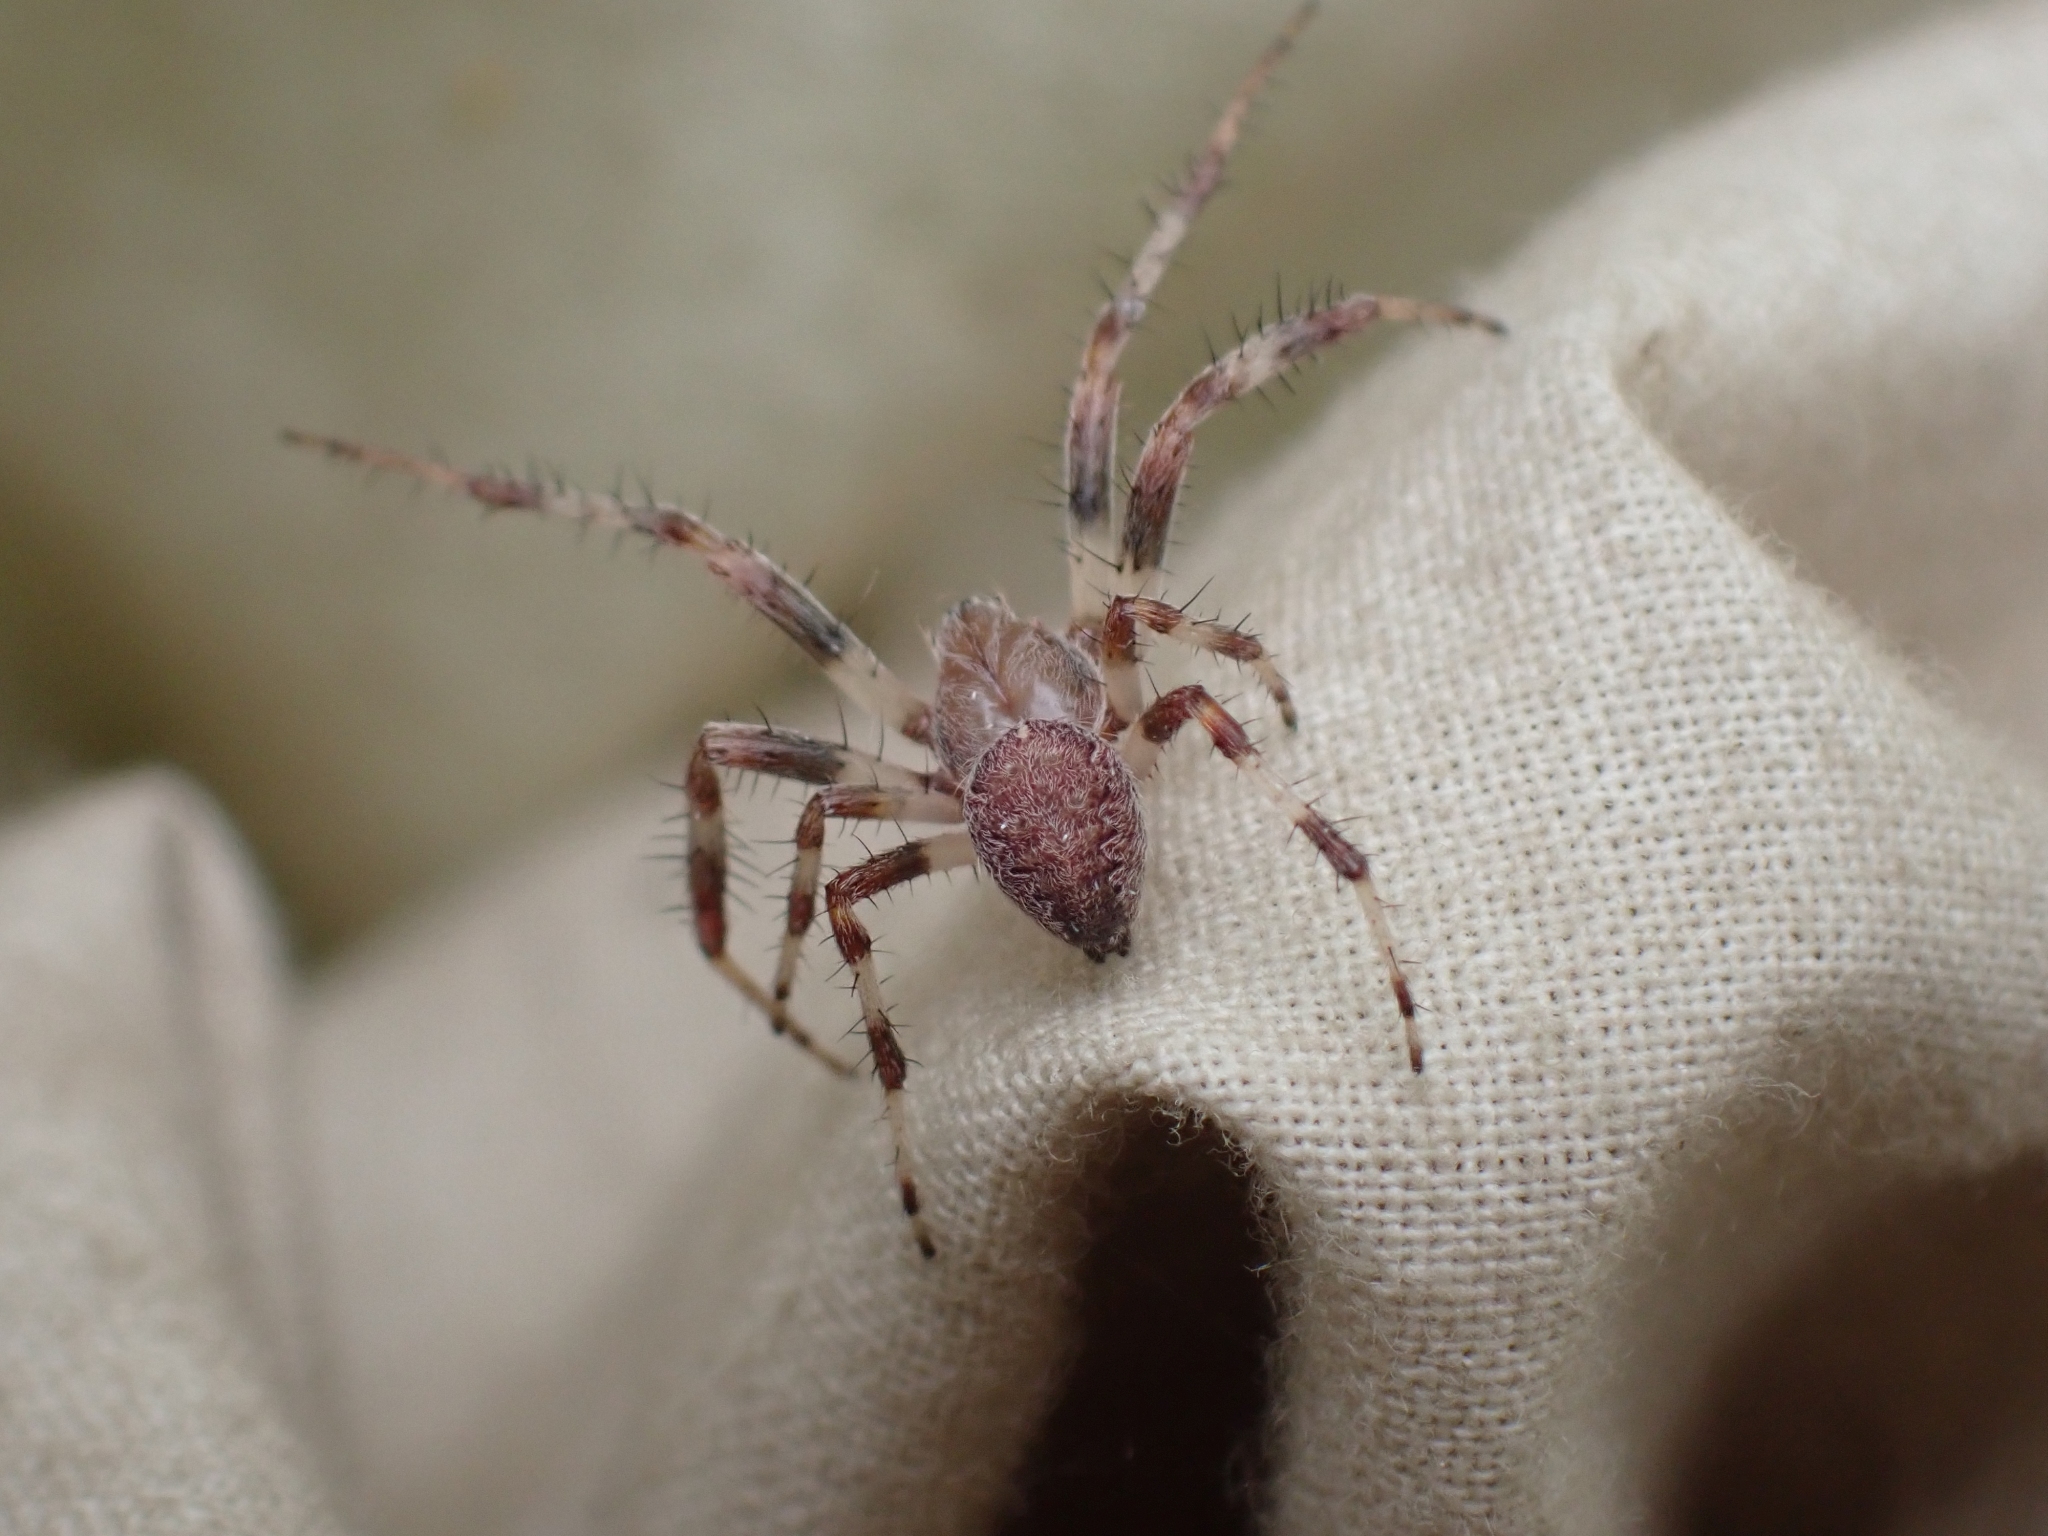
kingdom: Animalia
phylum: Arthropoda
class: Arachnida
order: Araneae
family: Araneidae
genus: Araneus
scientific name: Araneus marmoreus
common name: Marbled orbweaver
